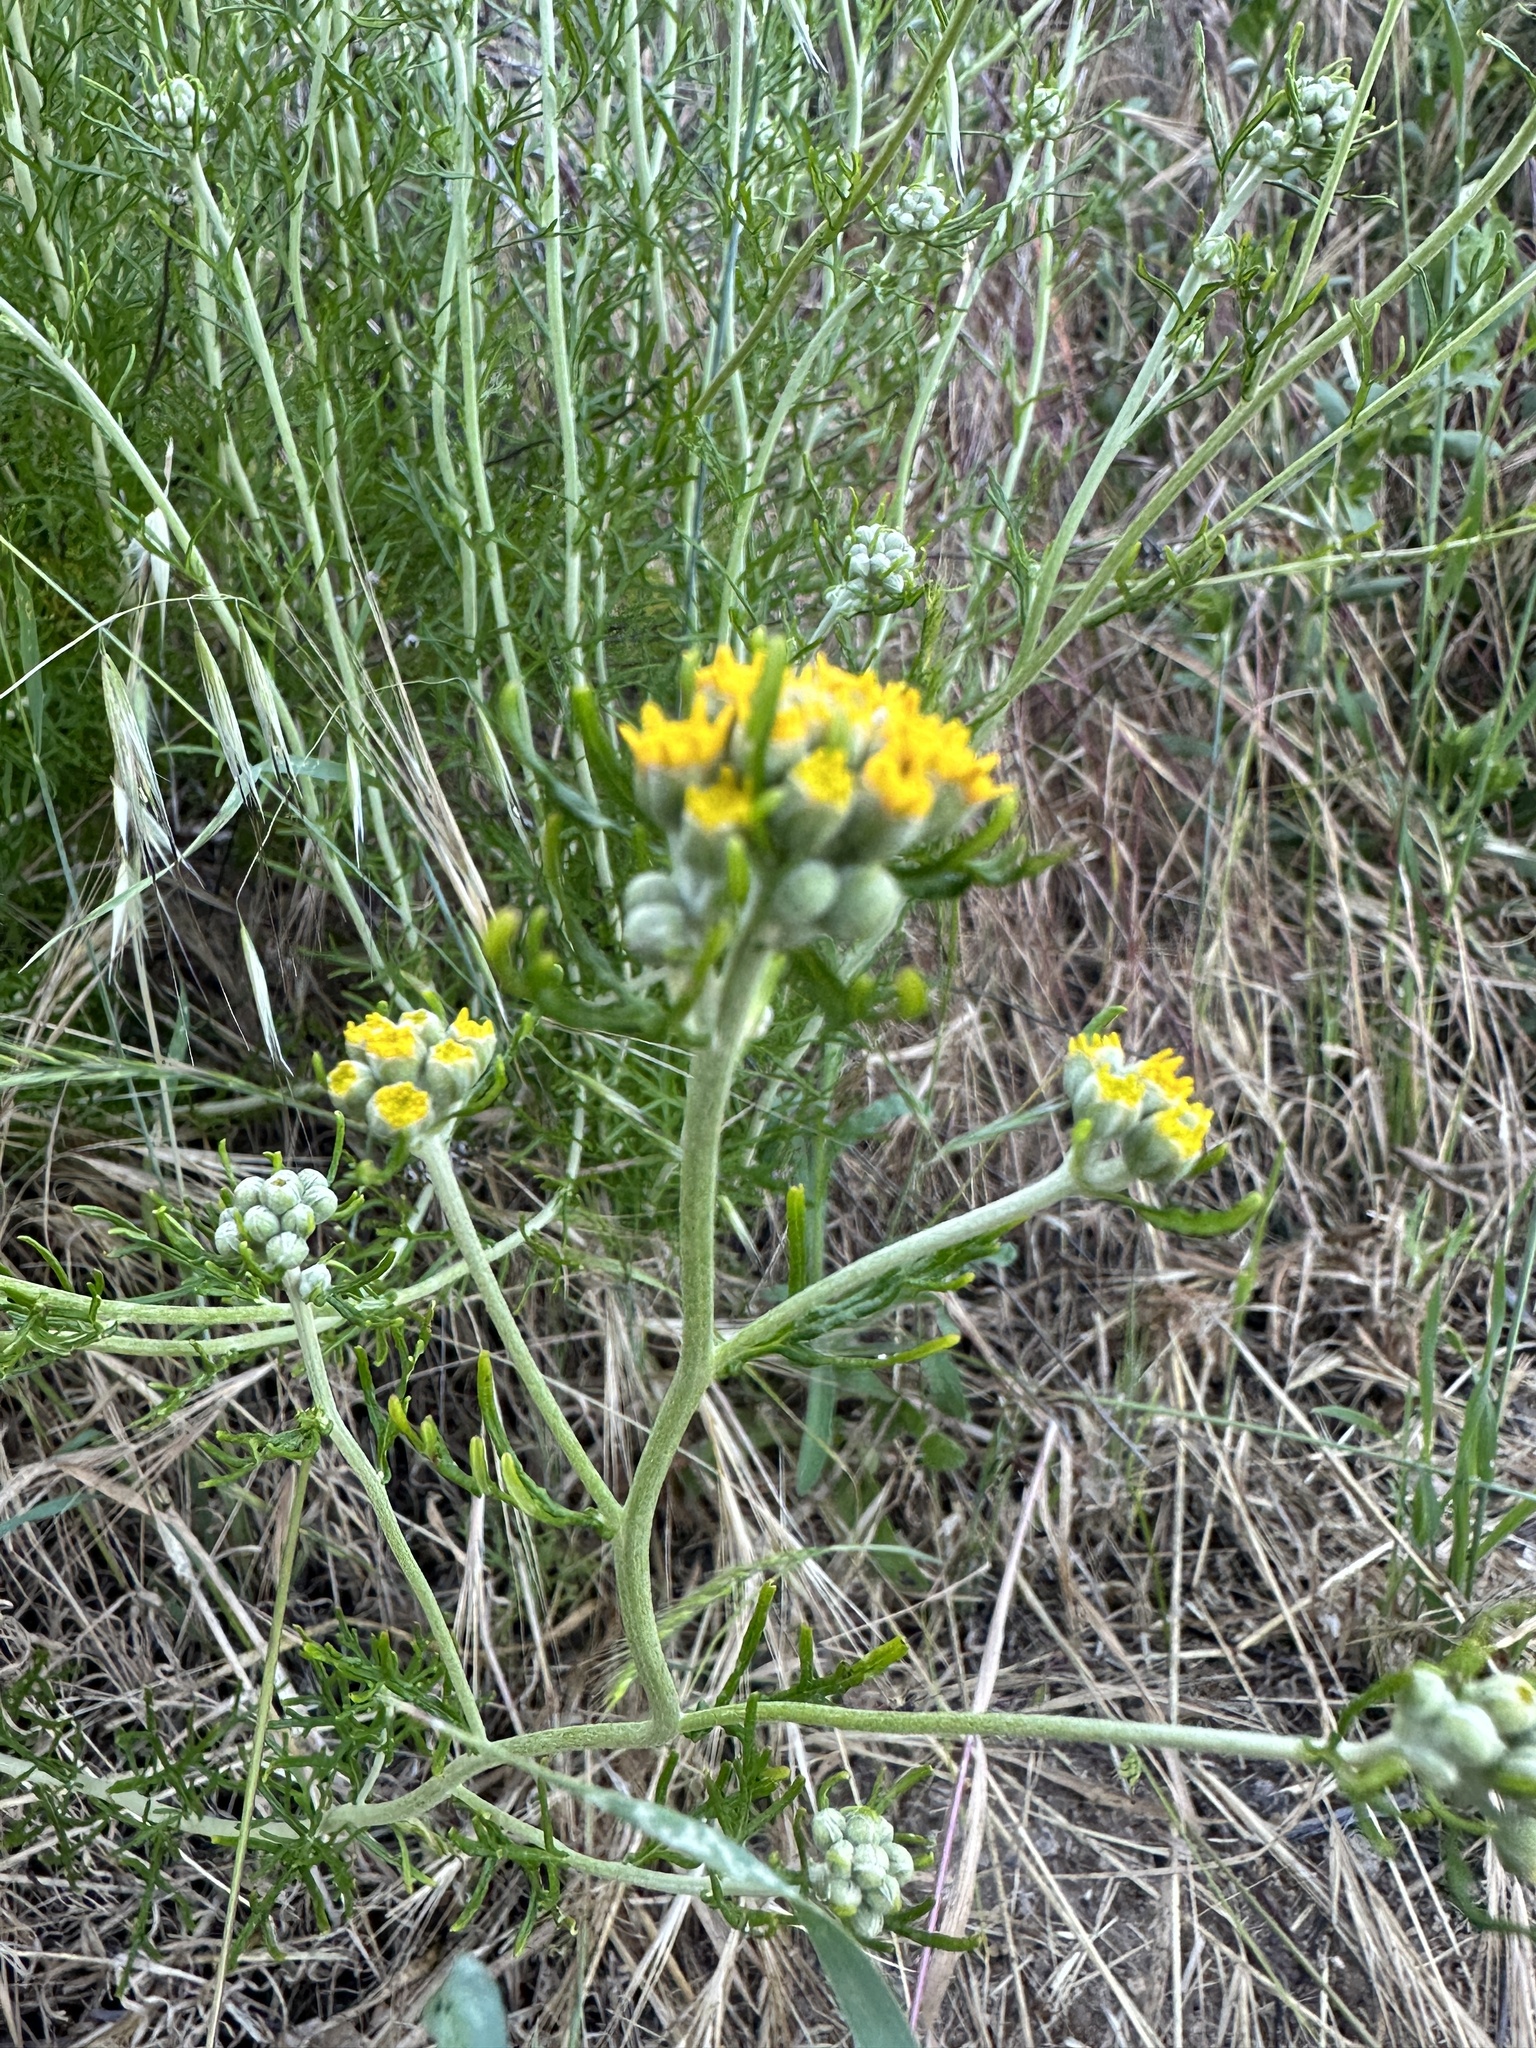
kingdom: Plantae
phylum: Tracheophyta
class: Magnoliopsida
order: Asterales
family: Asteraceae
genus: Eriophyllum
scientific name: Eriophyllum confertiflorum
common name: Golden-yarrow
